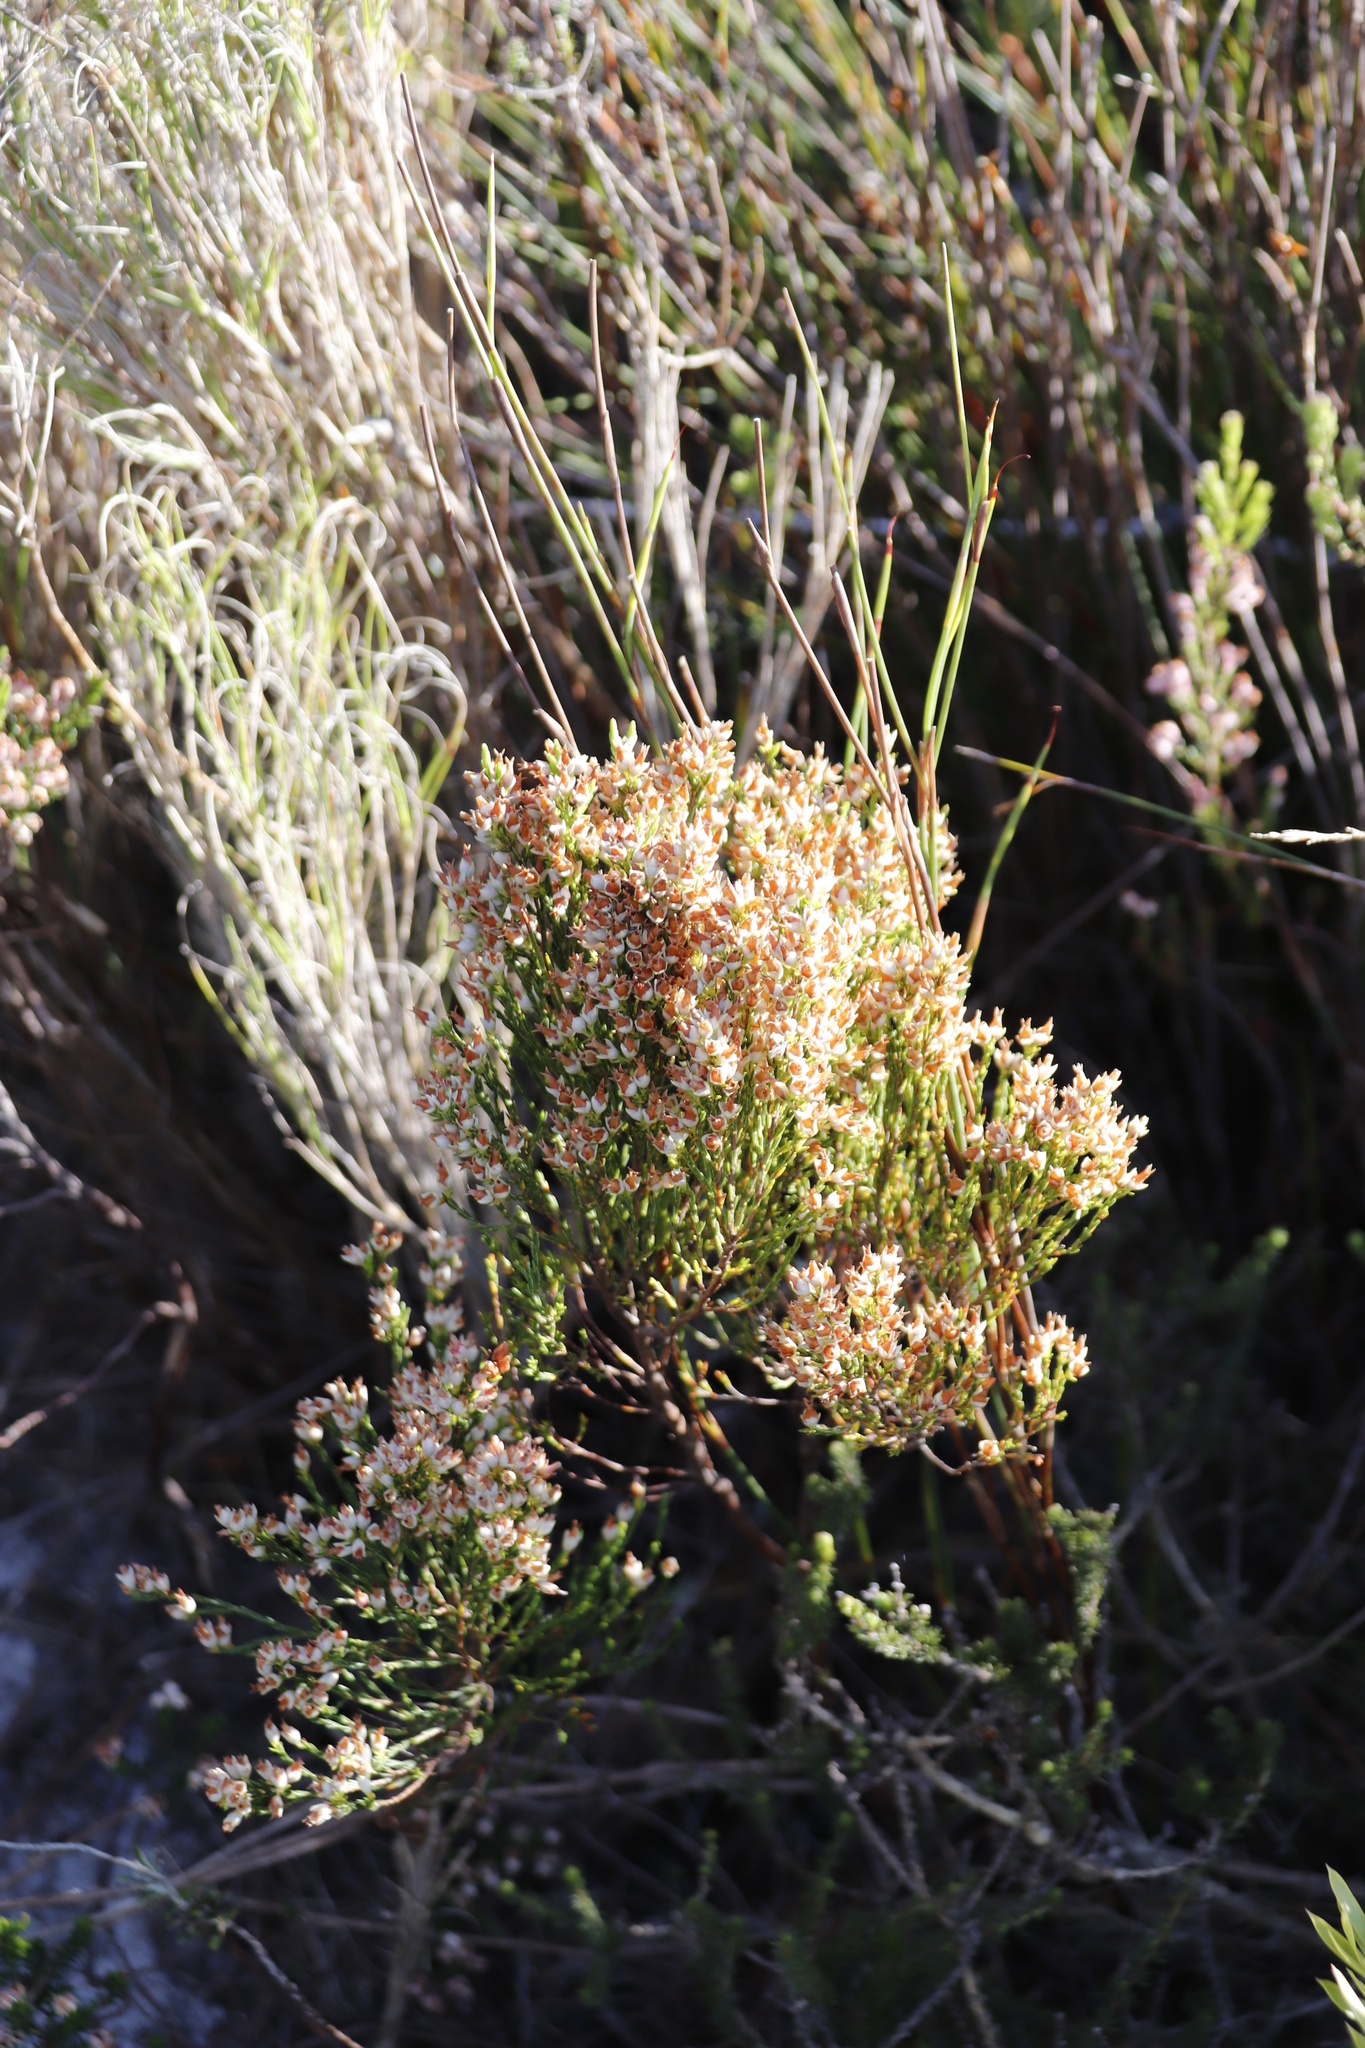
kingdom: Plantae
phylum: Tracheophyta
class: Magnoliopsida
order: Ericales
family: Ericaceae
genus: Erica
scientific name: Erica lutea
